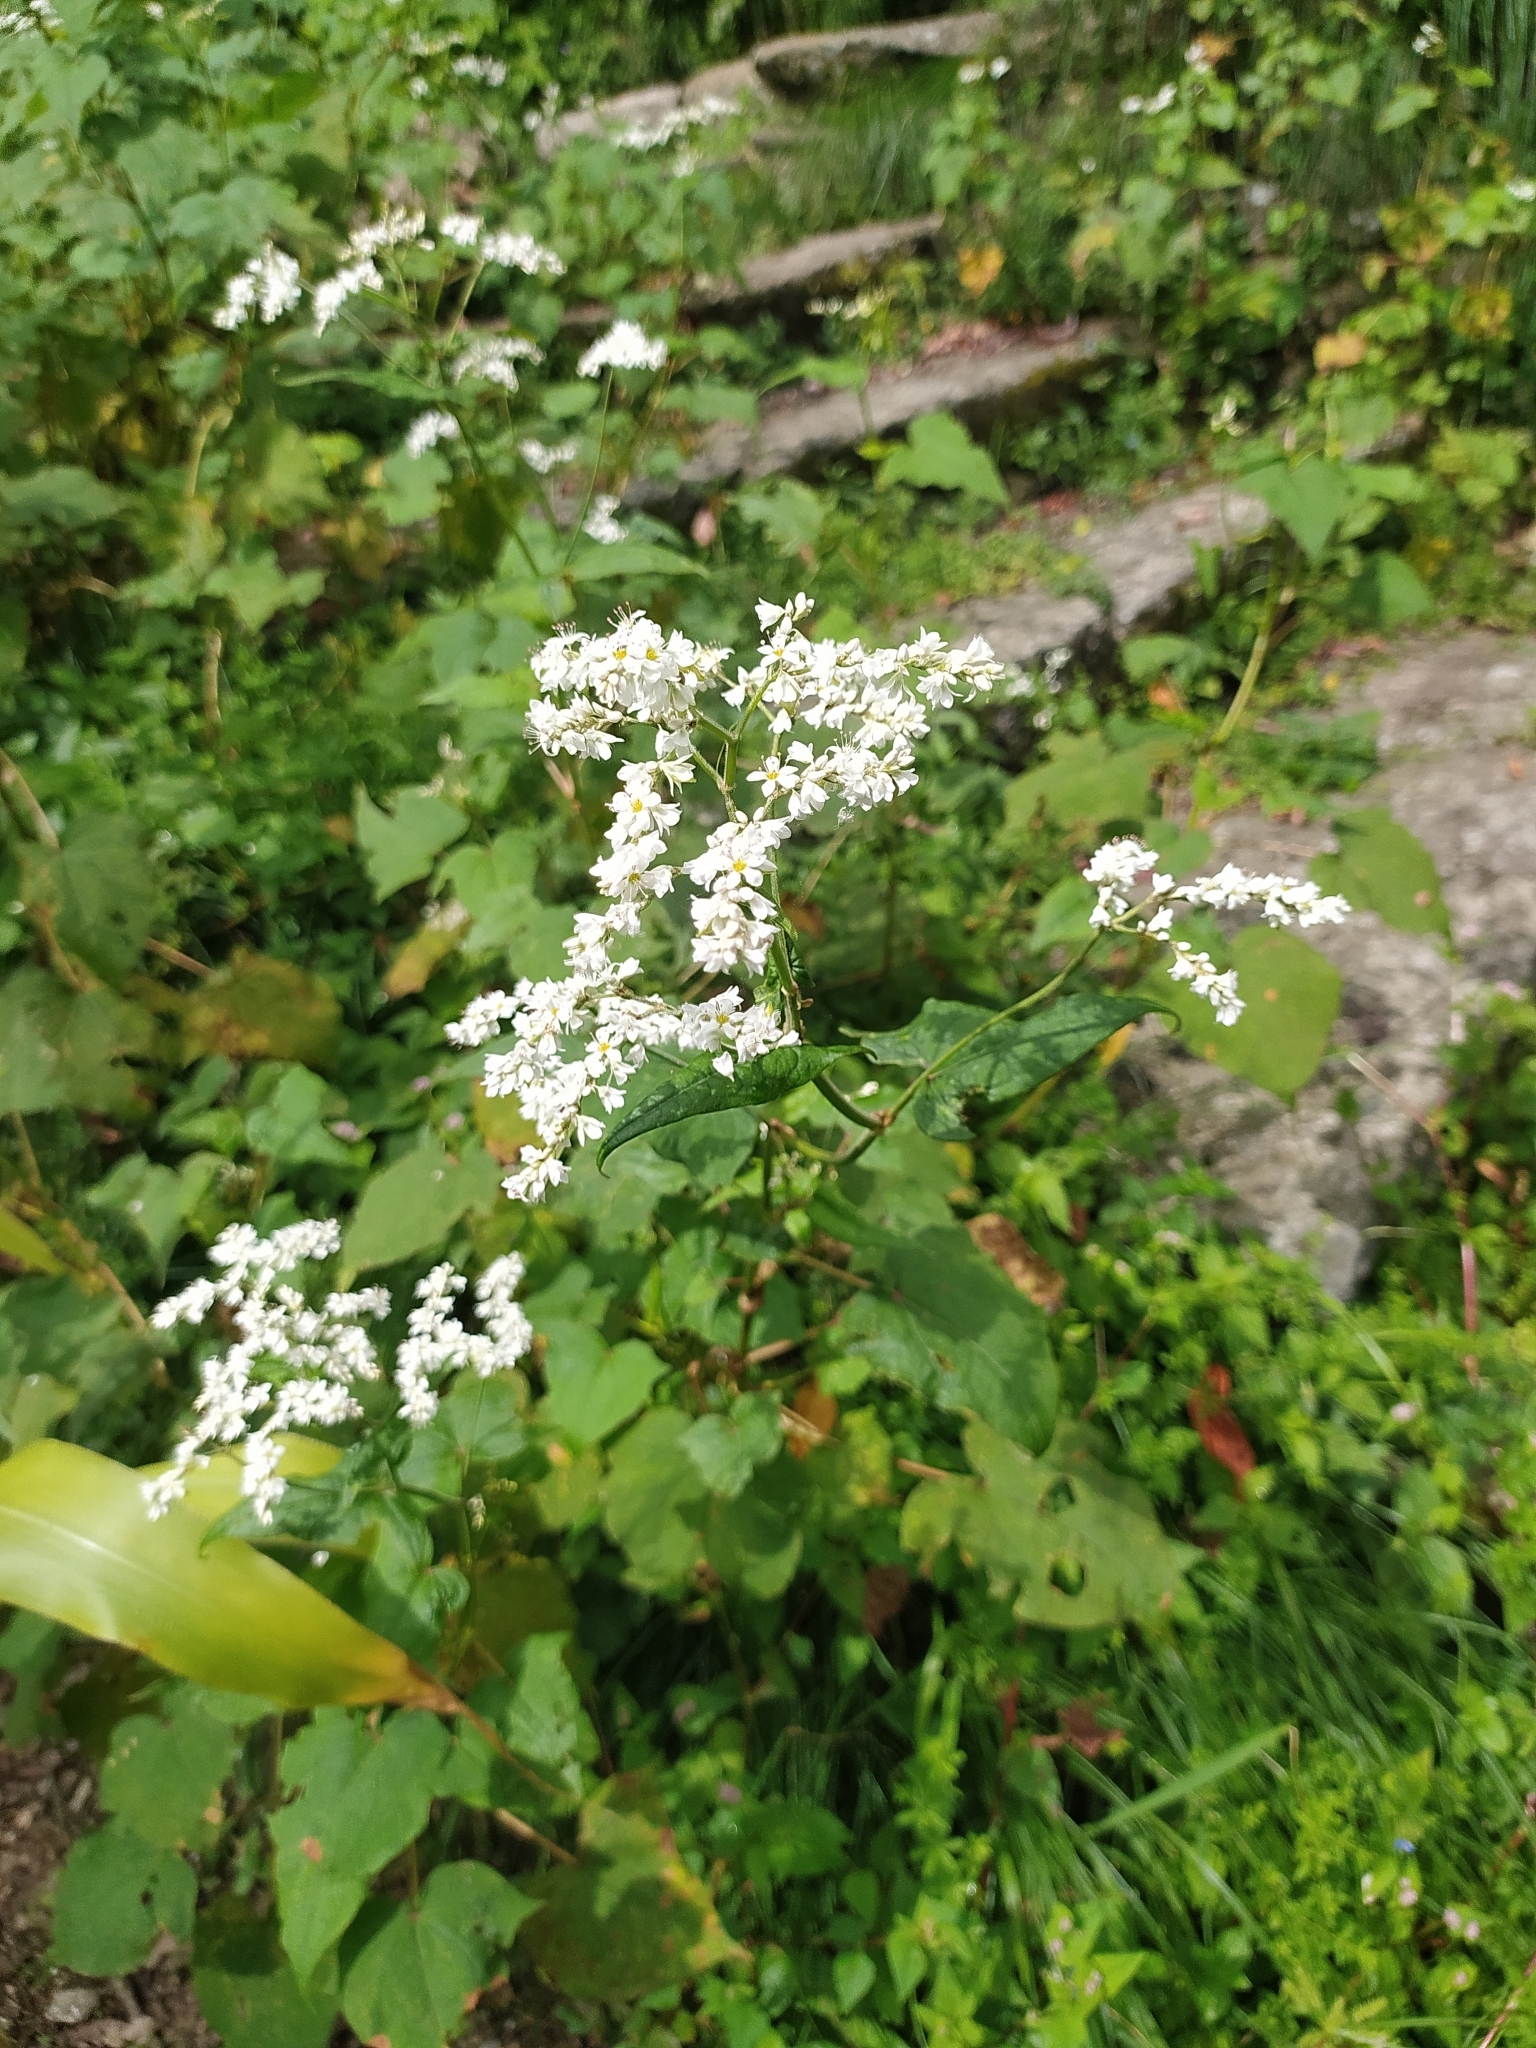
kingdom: Plantae
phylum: Tracheophyta
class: Magnoliopsida
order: Caryophyllales
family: Polygonaceae
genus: Fagopyrum
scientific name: Fagopyrum cymosum
